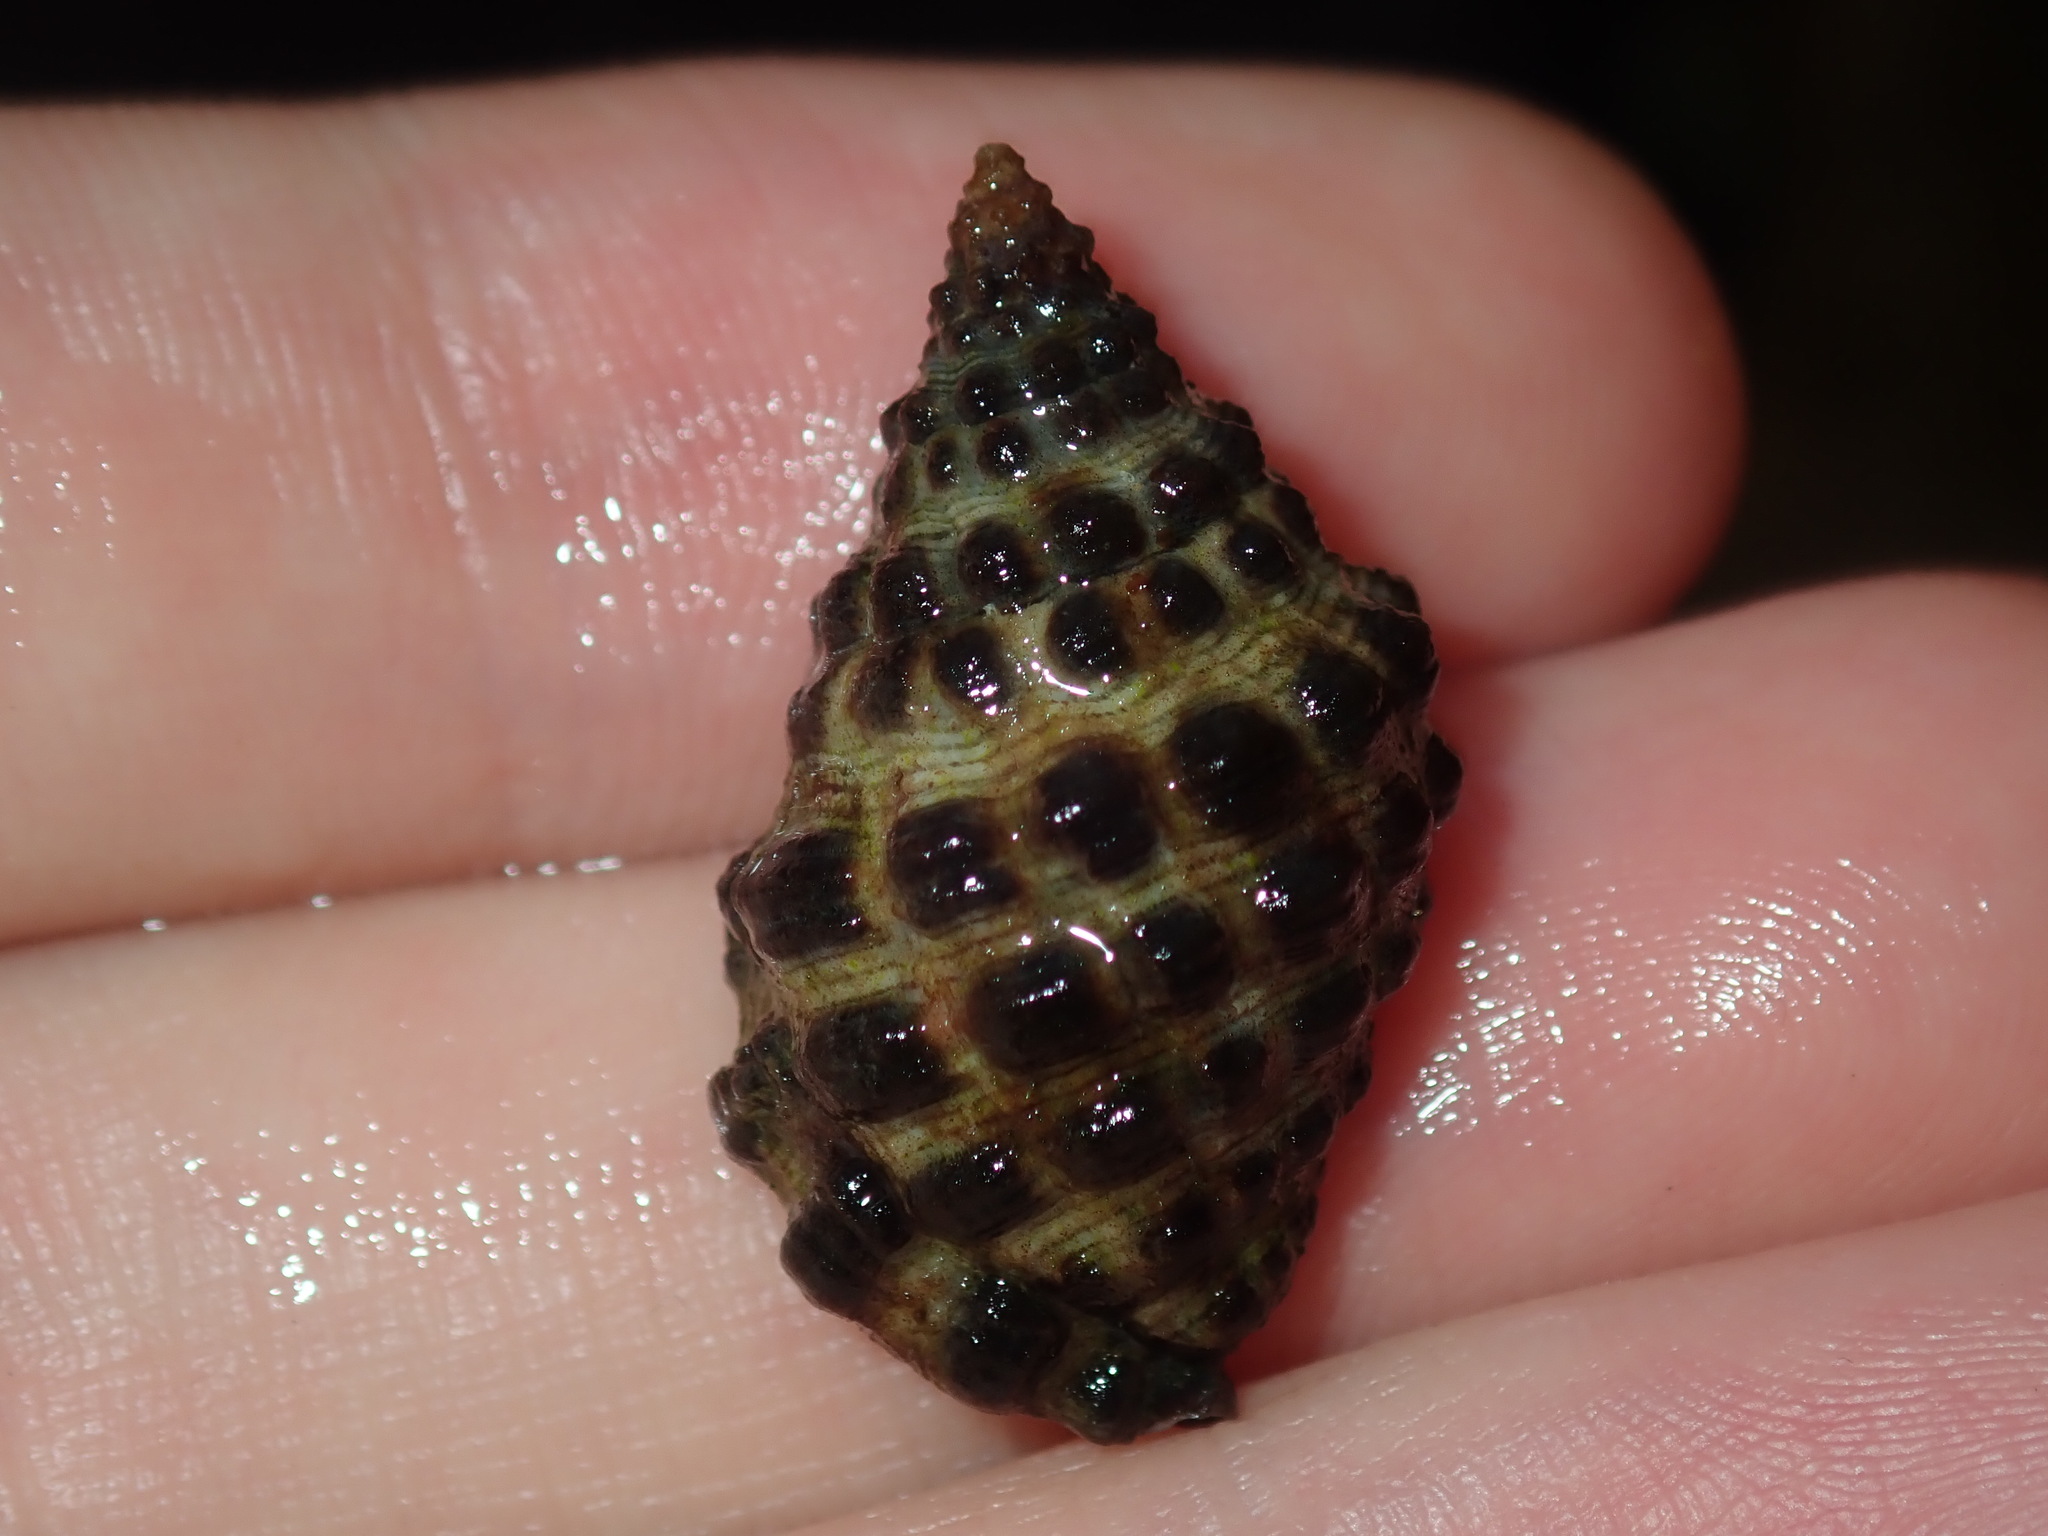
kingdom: Animalia
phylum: Mollusca
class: Gastropoda
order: Neogastropoda
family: Muricidae
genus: Tenguella
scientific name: Tenguella marginalba
